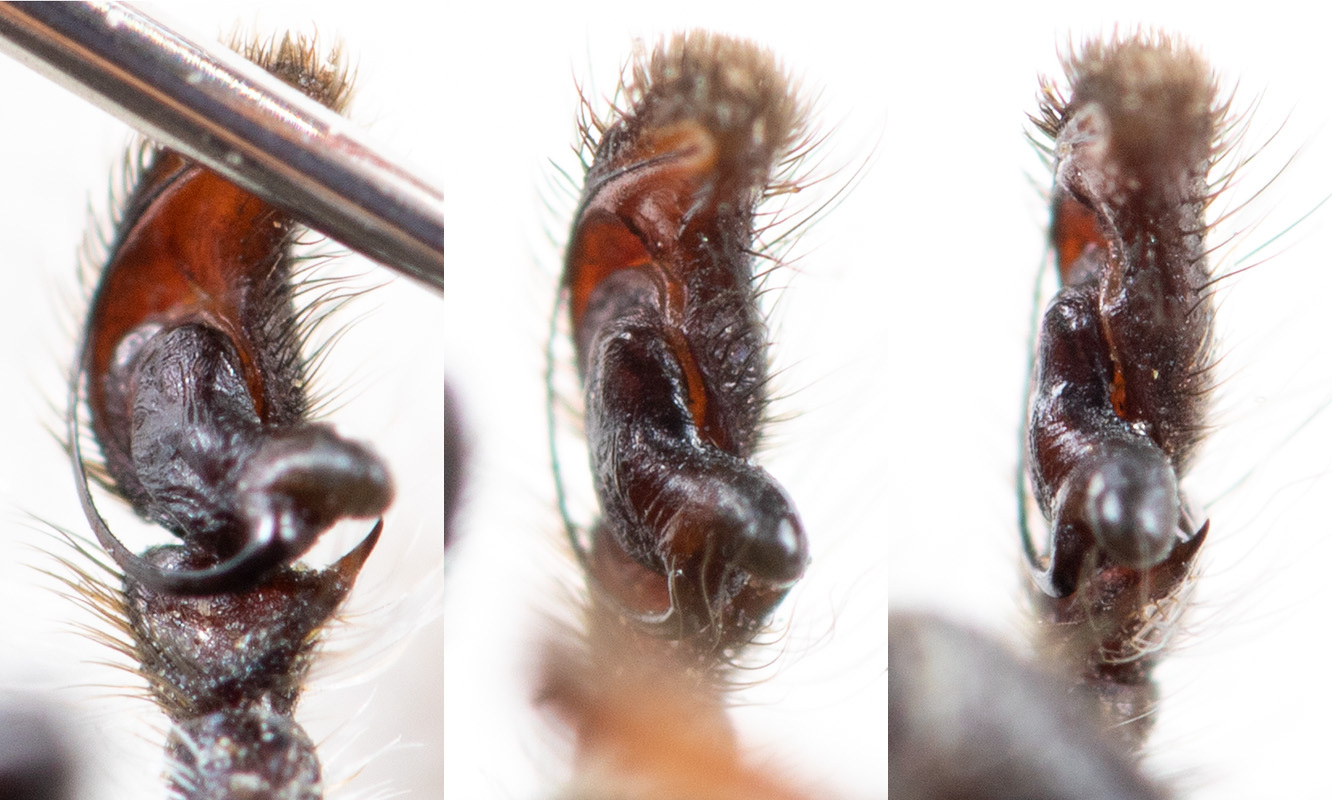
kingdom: Animalia
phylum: Arthropoda
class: Arachnida
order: Araneae
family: Salticidae
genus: Philaeus
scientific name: Philaeus chrysops
